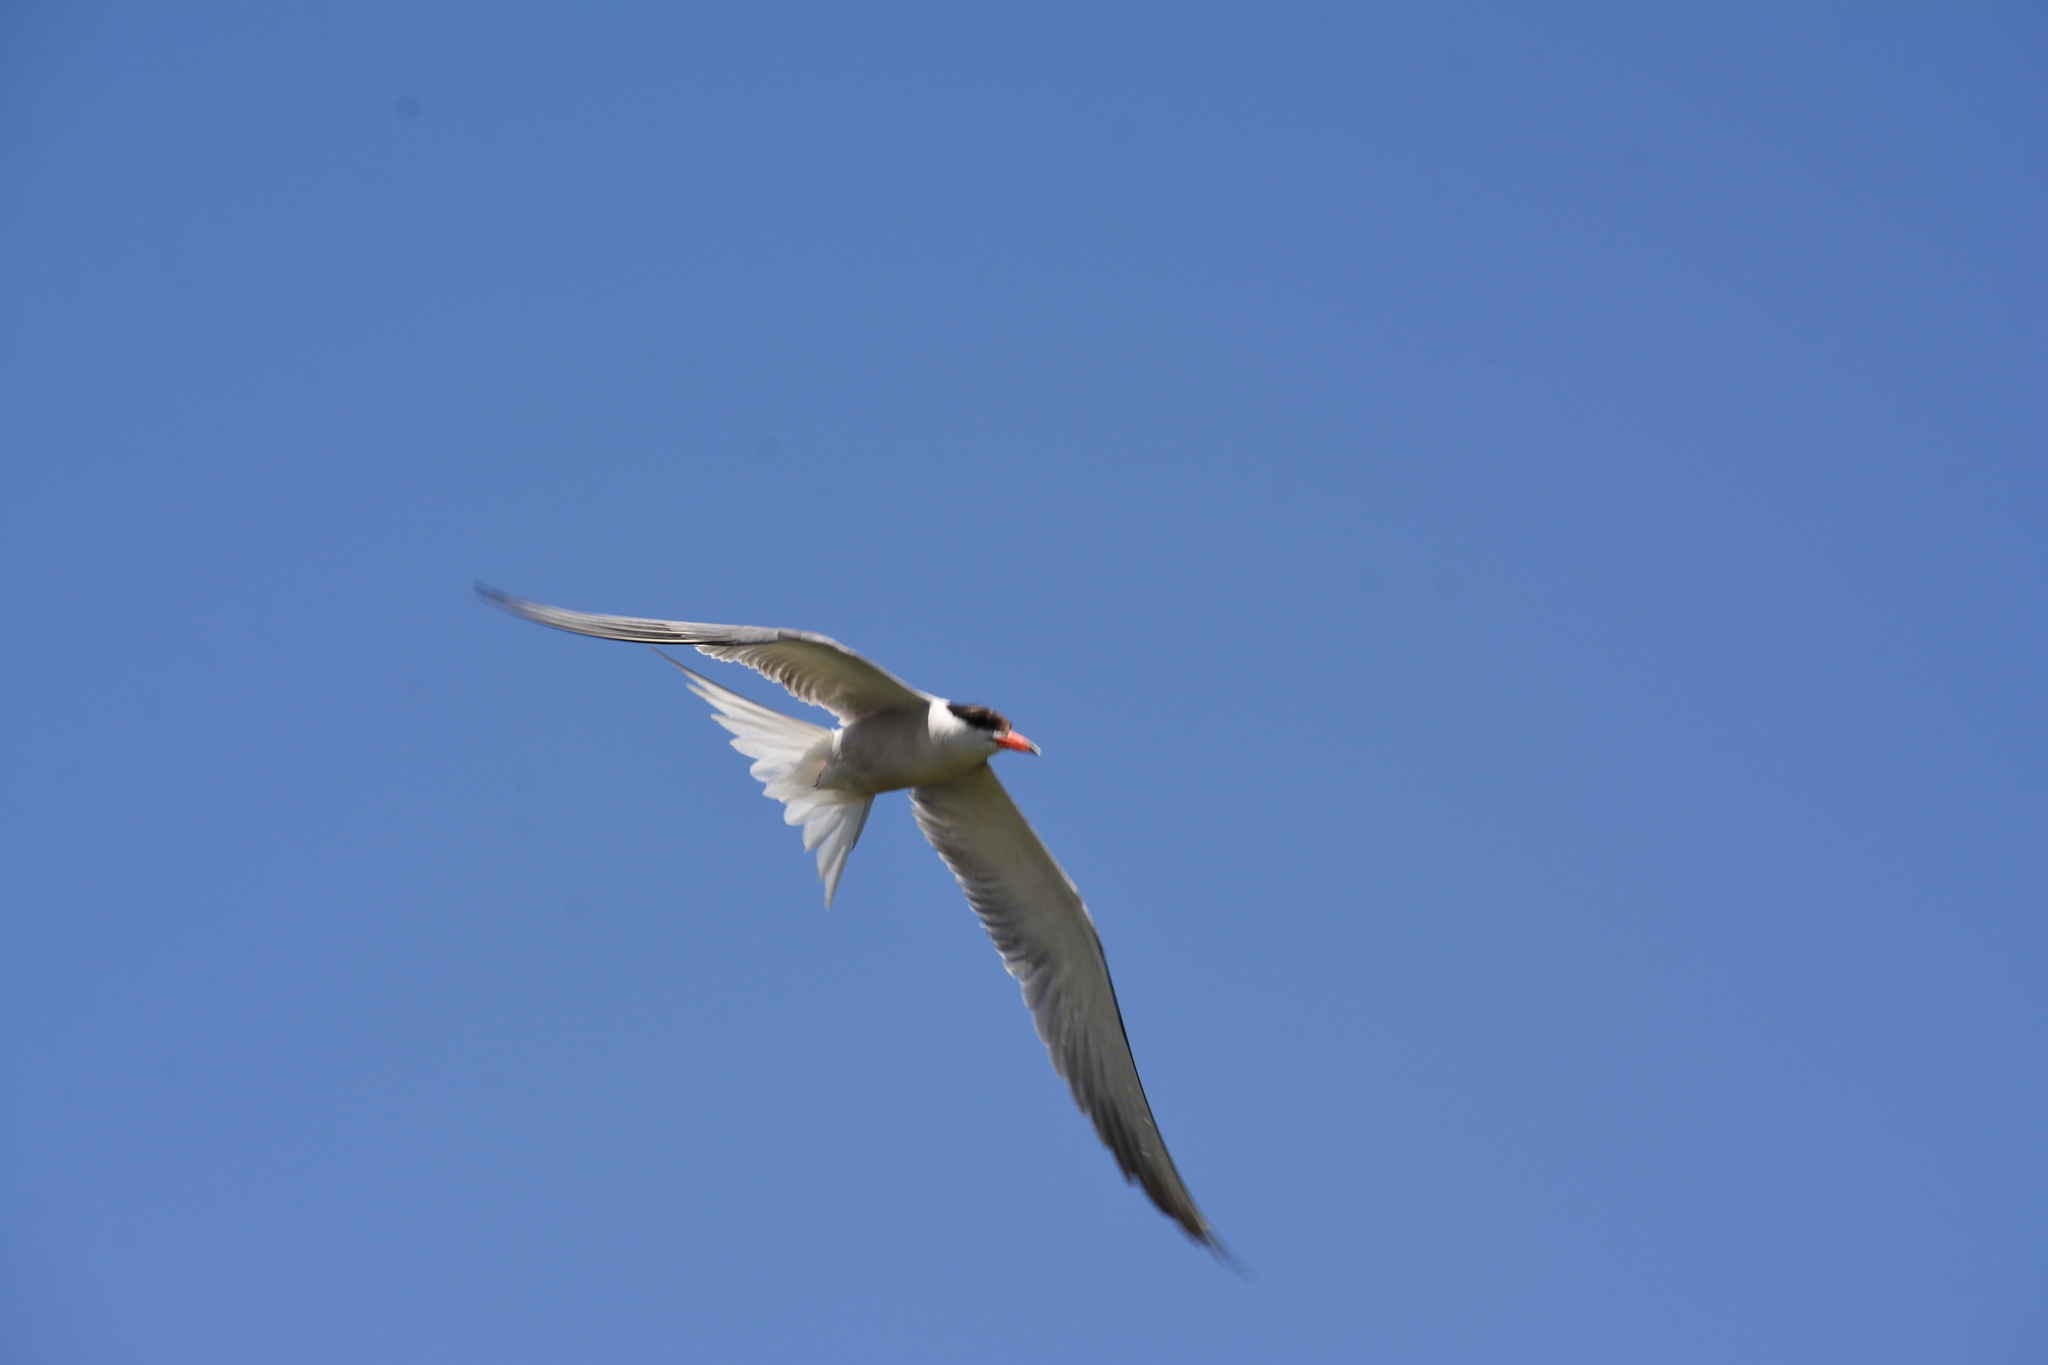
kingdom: Animalia
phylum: Chordata
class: Aves
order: Charadriiformes
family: Laridae
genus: Sterna
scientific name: Sterna hirundo
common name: Common tern
